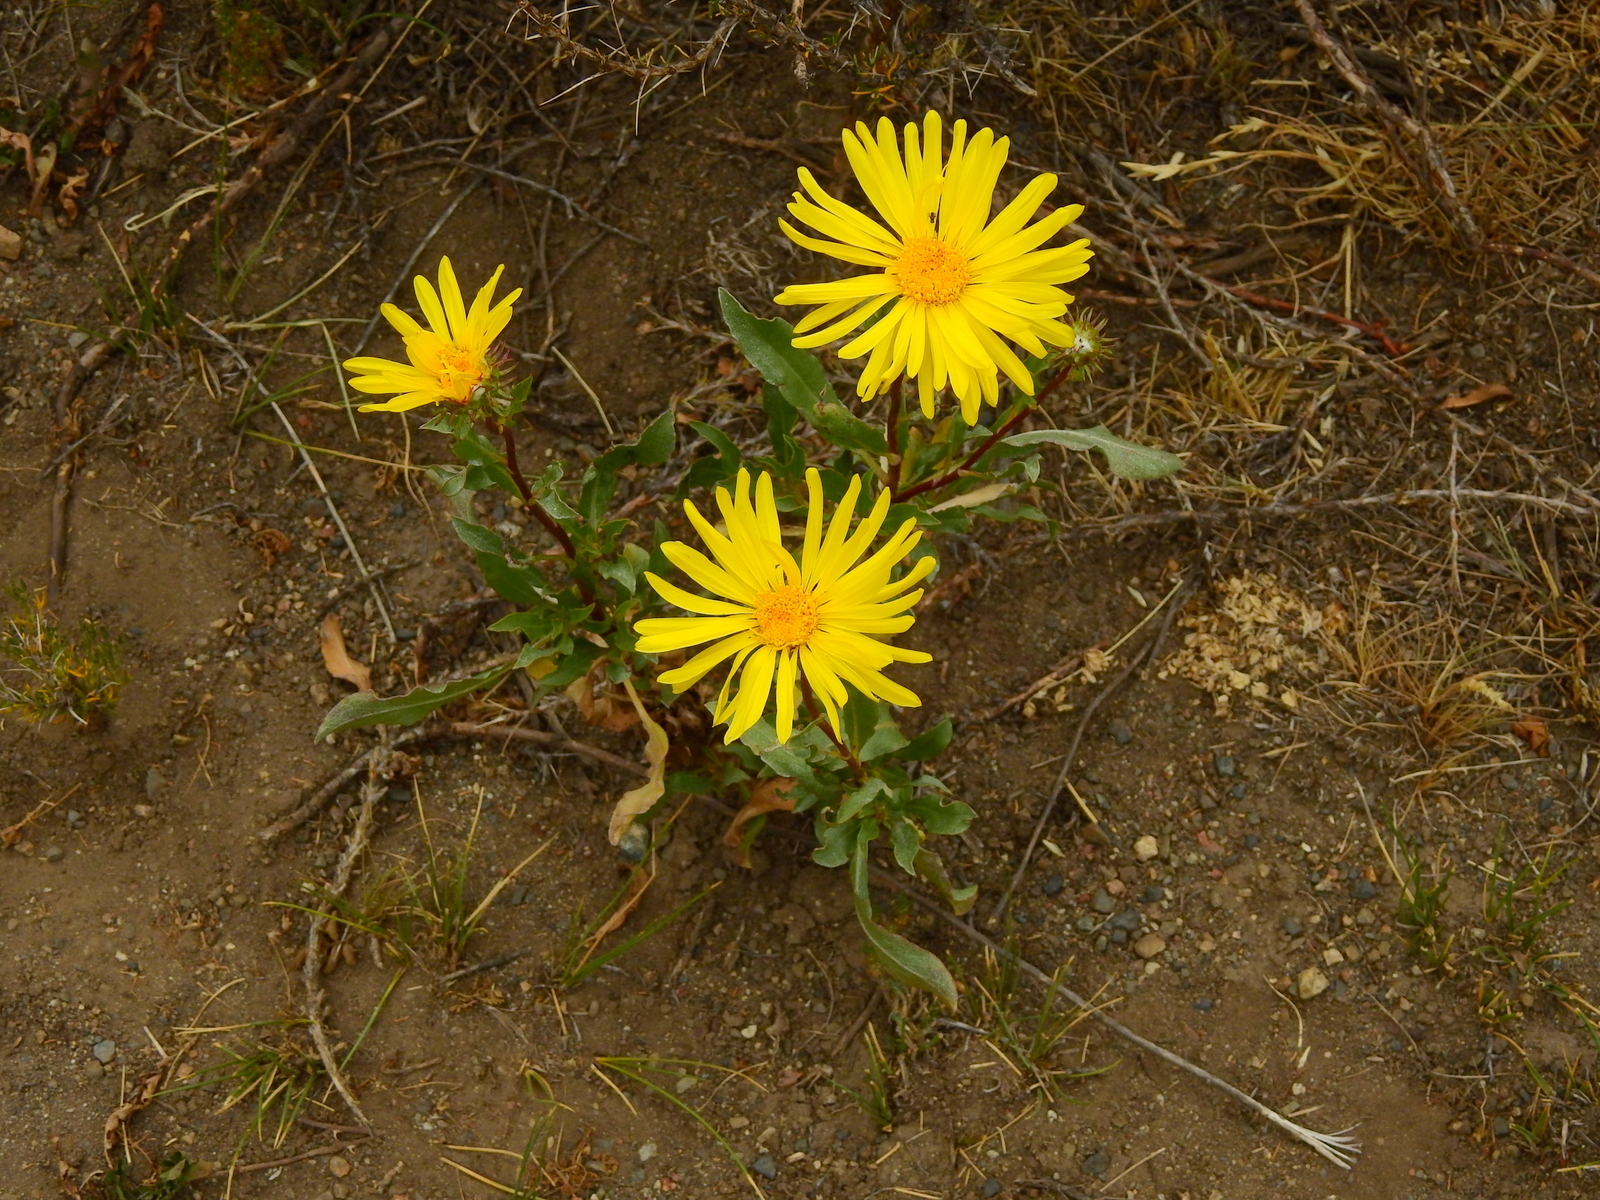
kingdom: Plantae
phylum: Tracheophyta
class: Magnoliopsida
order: Asterales
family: Asteraceae
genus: Grindelia
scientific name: Grindelia chiloensis
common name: Shrubby gumweed
